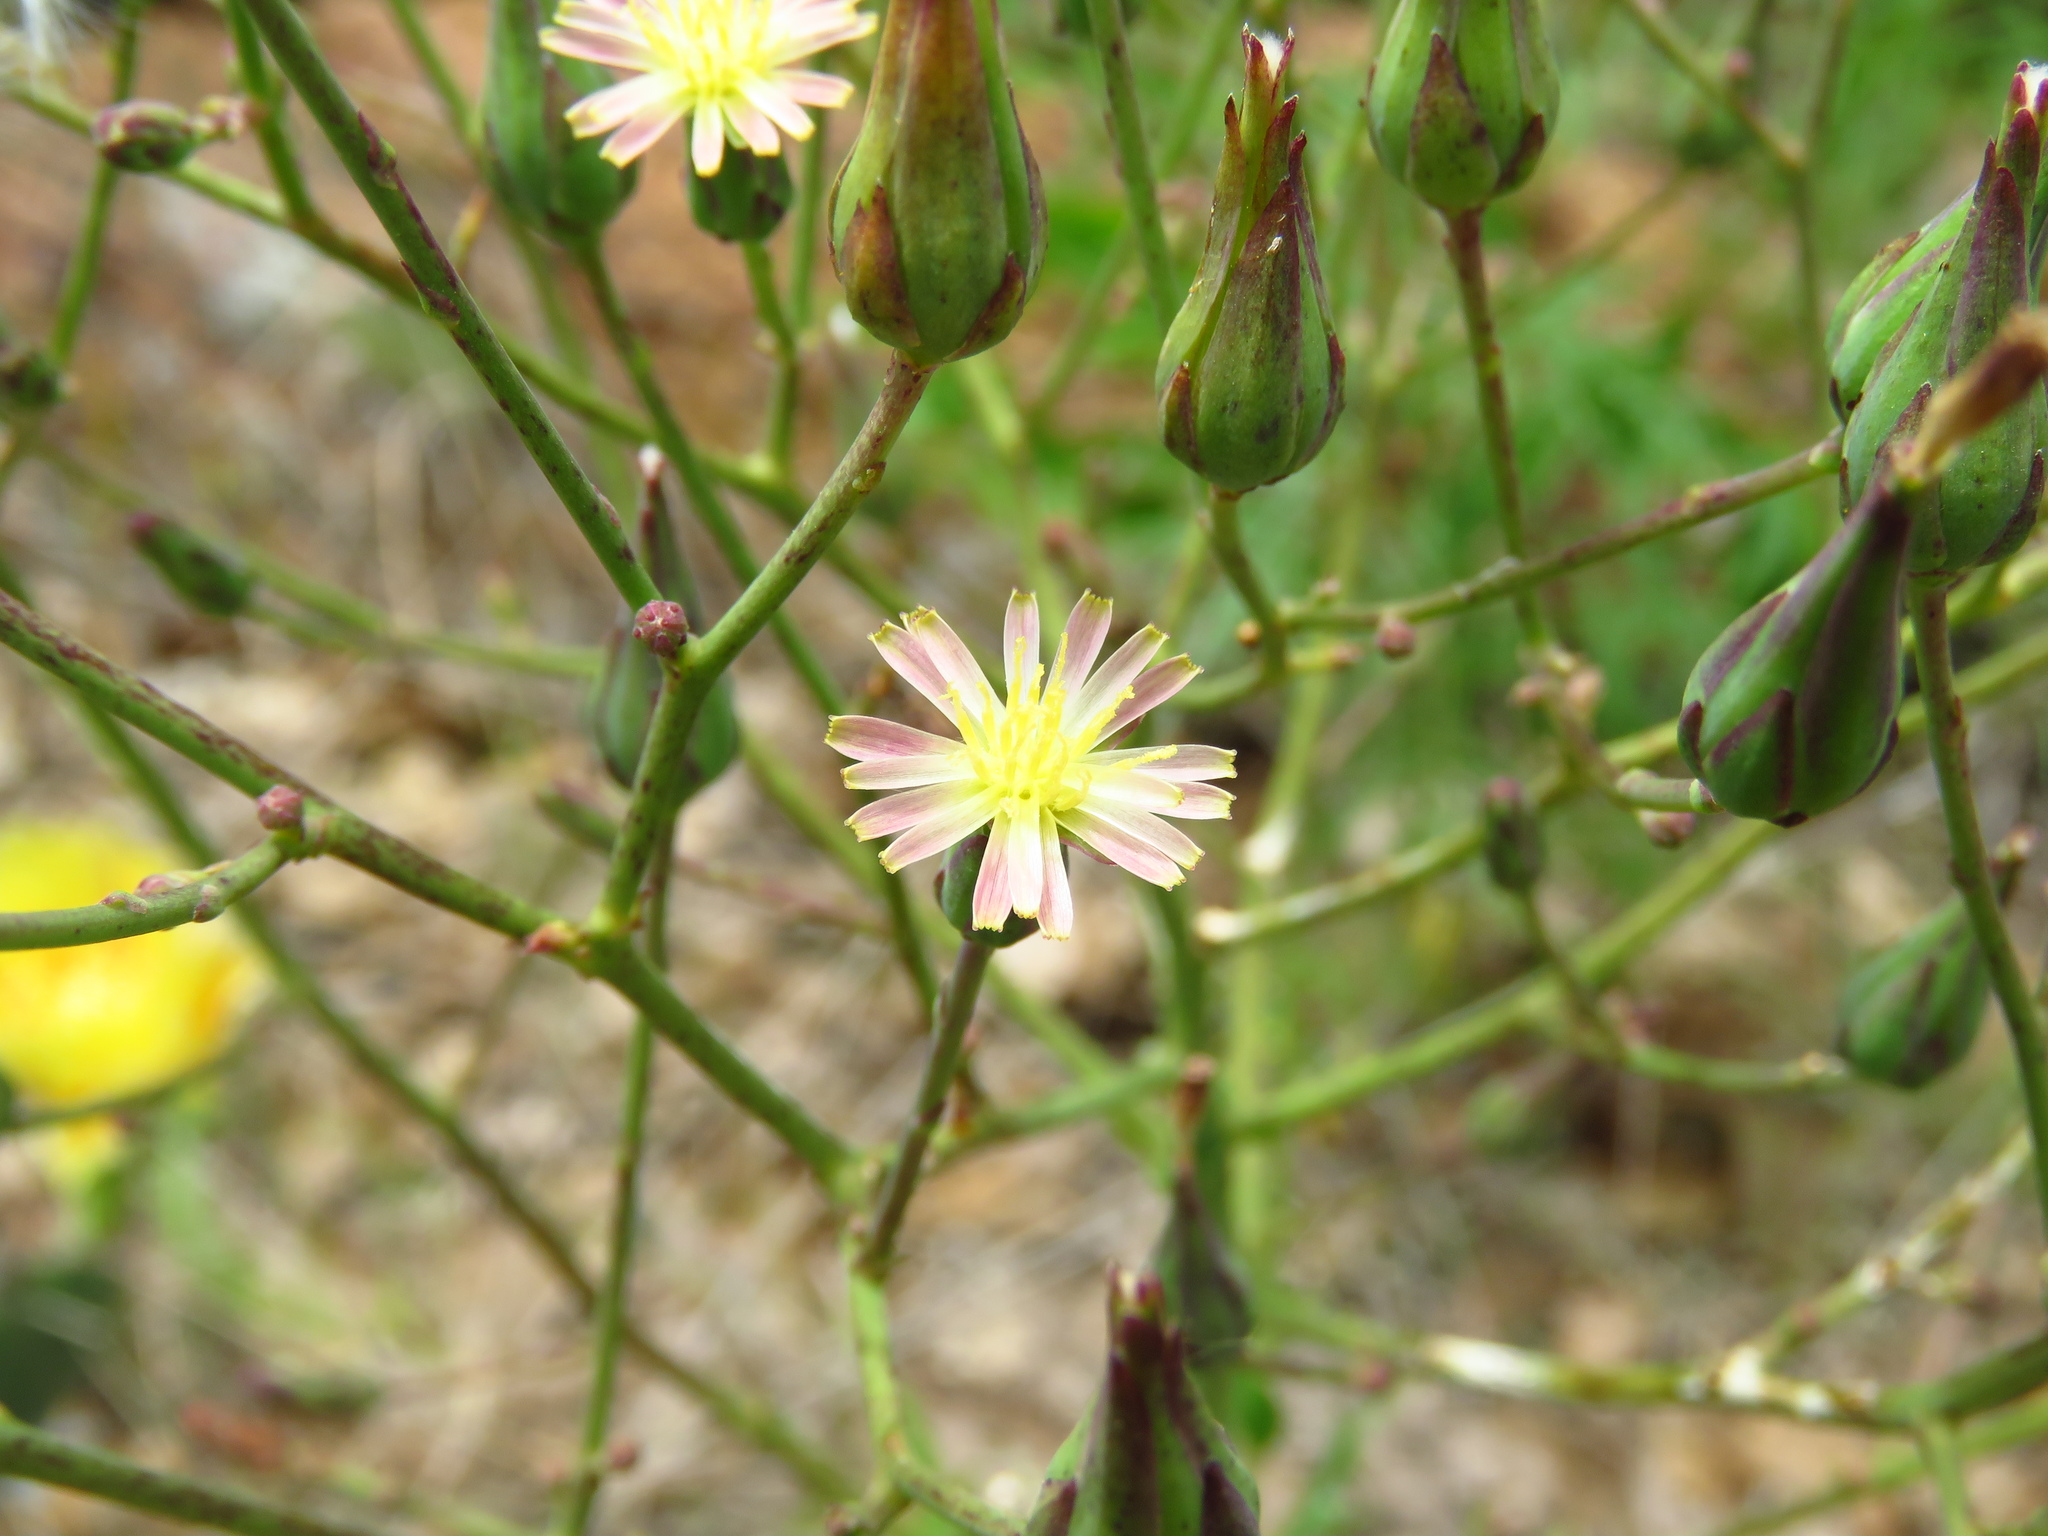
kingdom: Plantae
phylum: Tracheophyta
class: Magnoliopsida
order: Asterales
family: Asteraceae
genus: Lactuca
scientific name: Lactuca hirsuta
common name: Hairy lettuce
